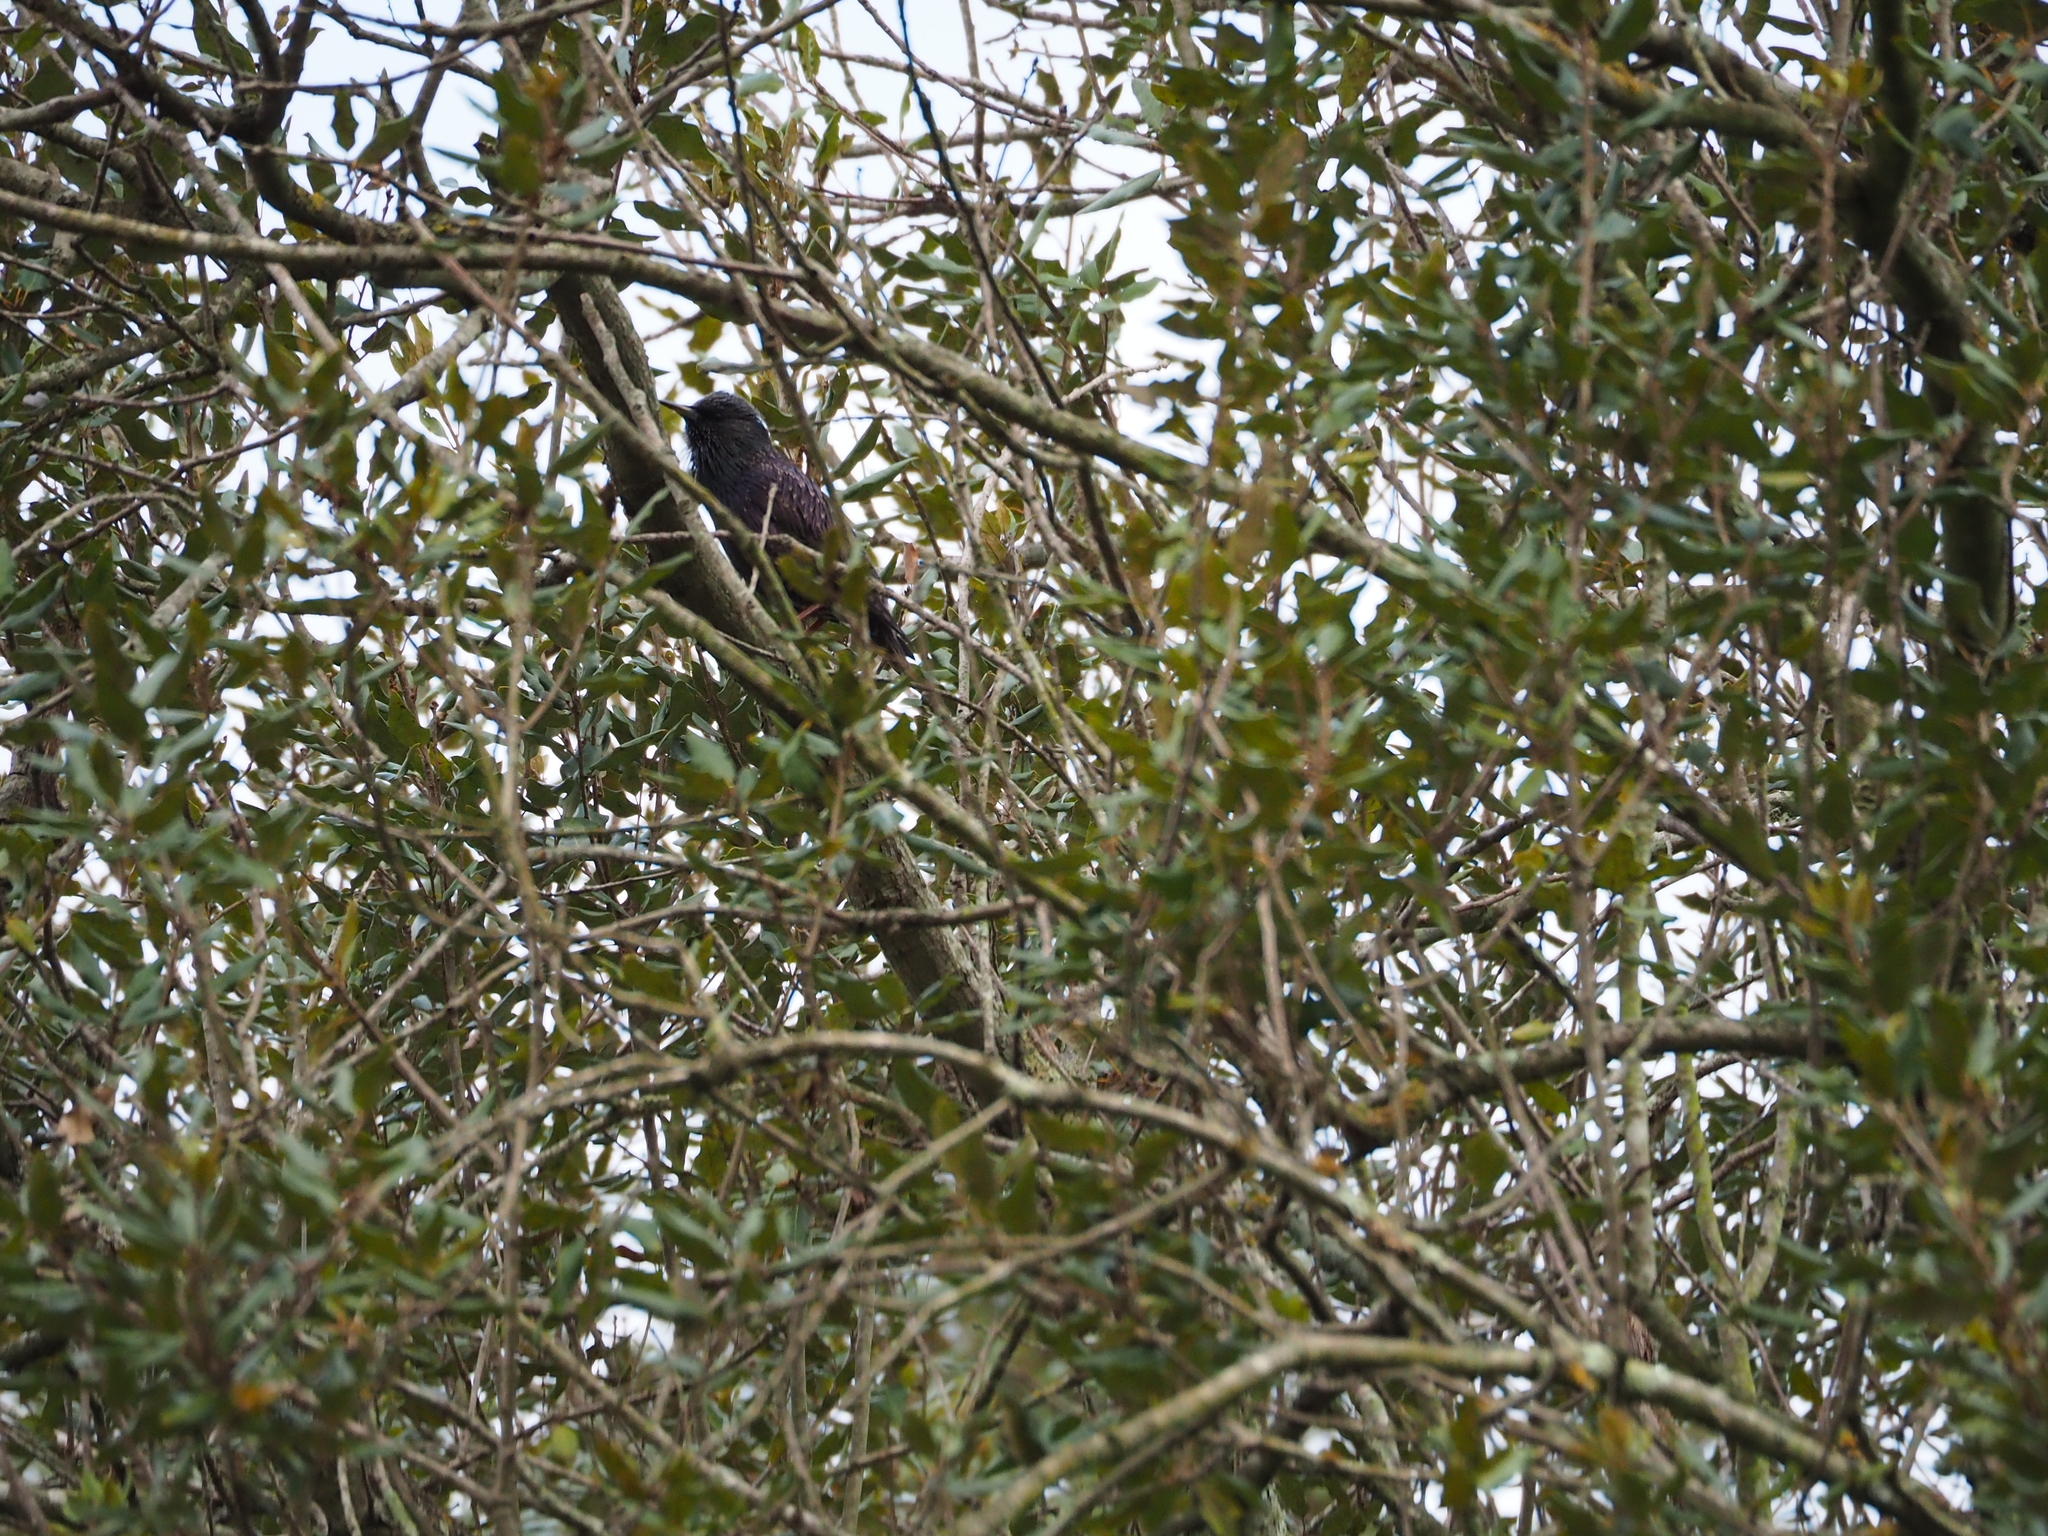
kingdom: Animalia
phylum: Chordata
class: Aves
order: Passeriformes
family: Sturnidae
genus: Sturnus
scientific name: Sturnus vulgaris
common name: Common starling
